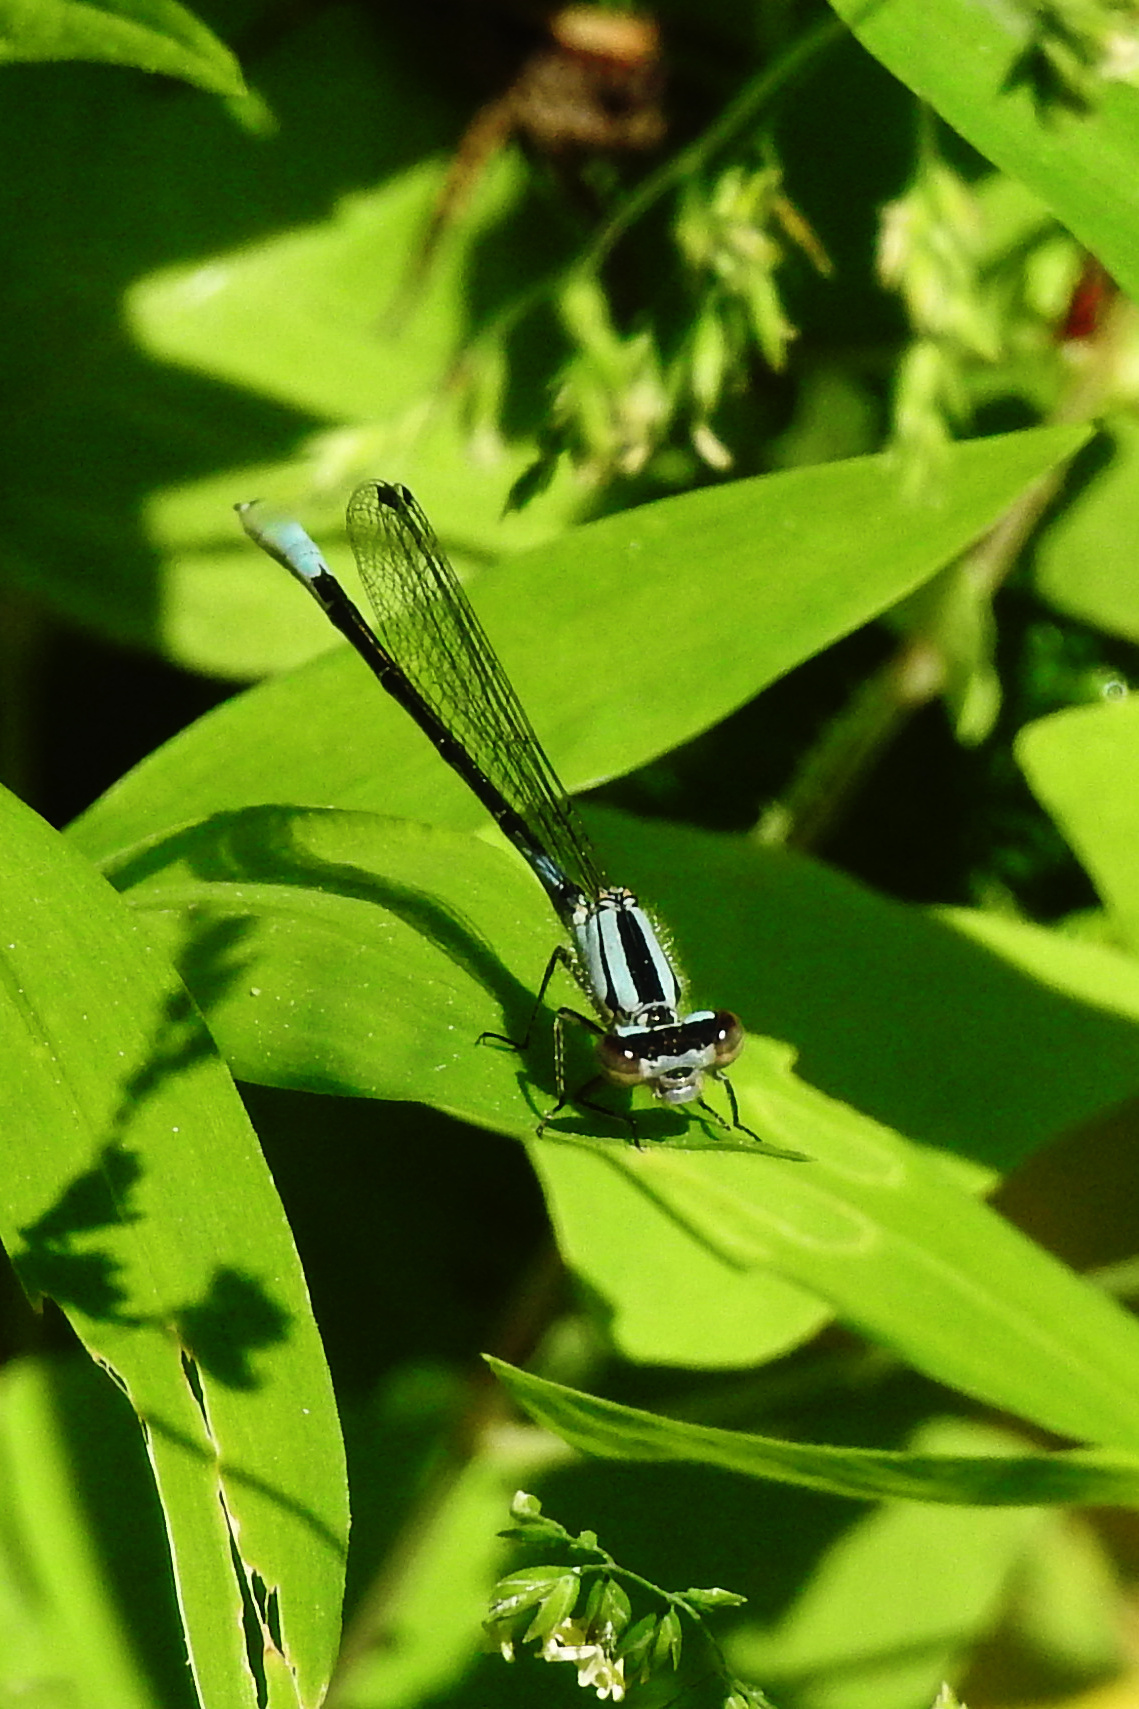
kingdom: Animalia
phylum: Arthropoda
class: Insecta
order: Odonata
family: Coenagrionidae
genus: Enallagma
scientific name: Enallagma aspersum
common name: Azure bluet
